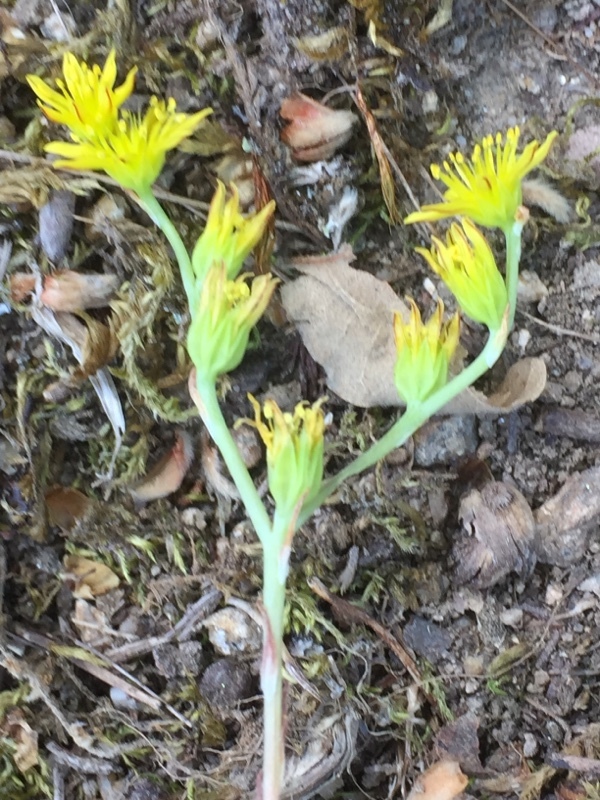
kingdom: Plantae
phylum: Tracheophyta
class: Magnoliopsida
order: Saxifragales
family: Crassulaceae
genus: Petrosedum
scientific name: Petrosedum amplexicaule
